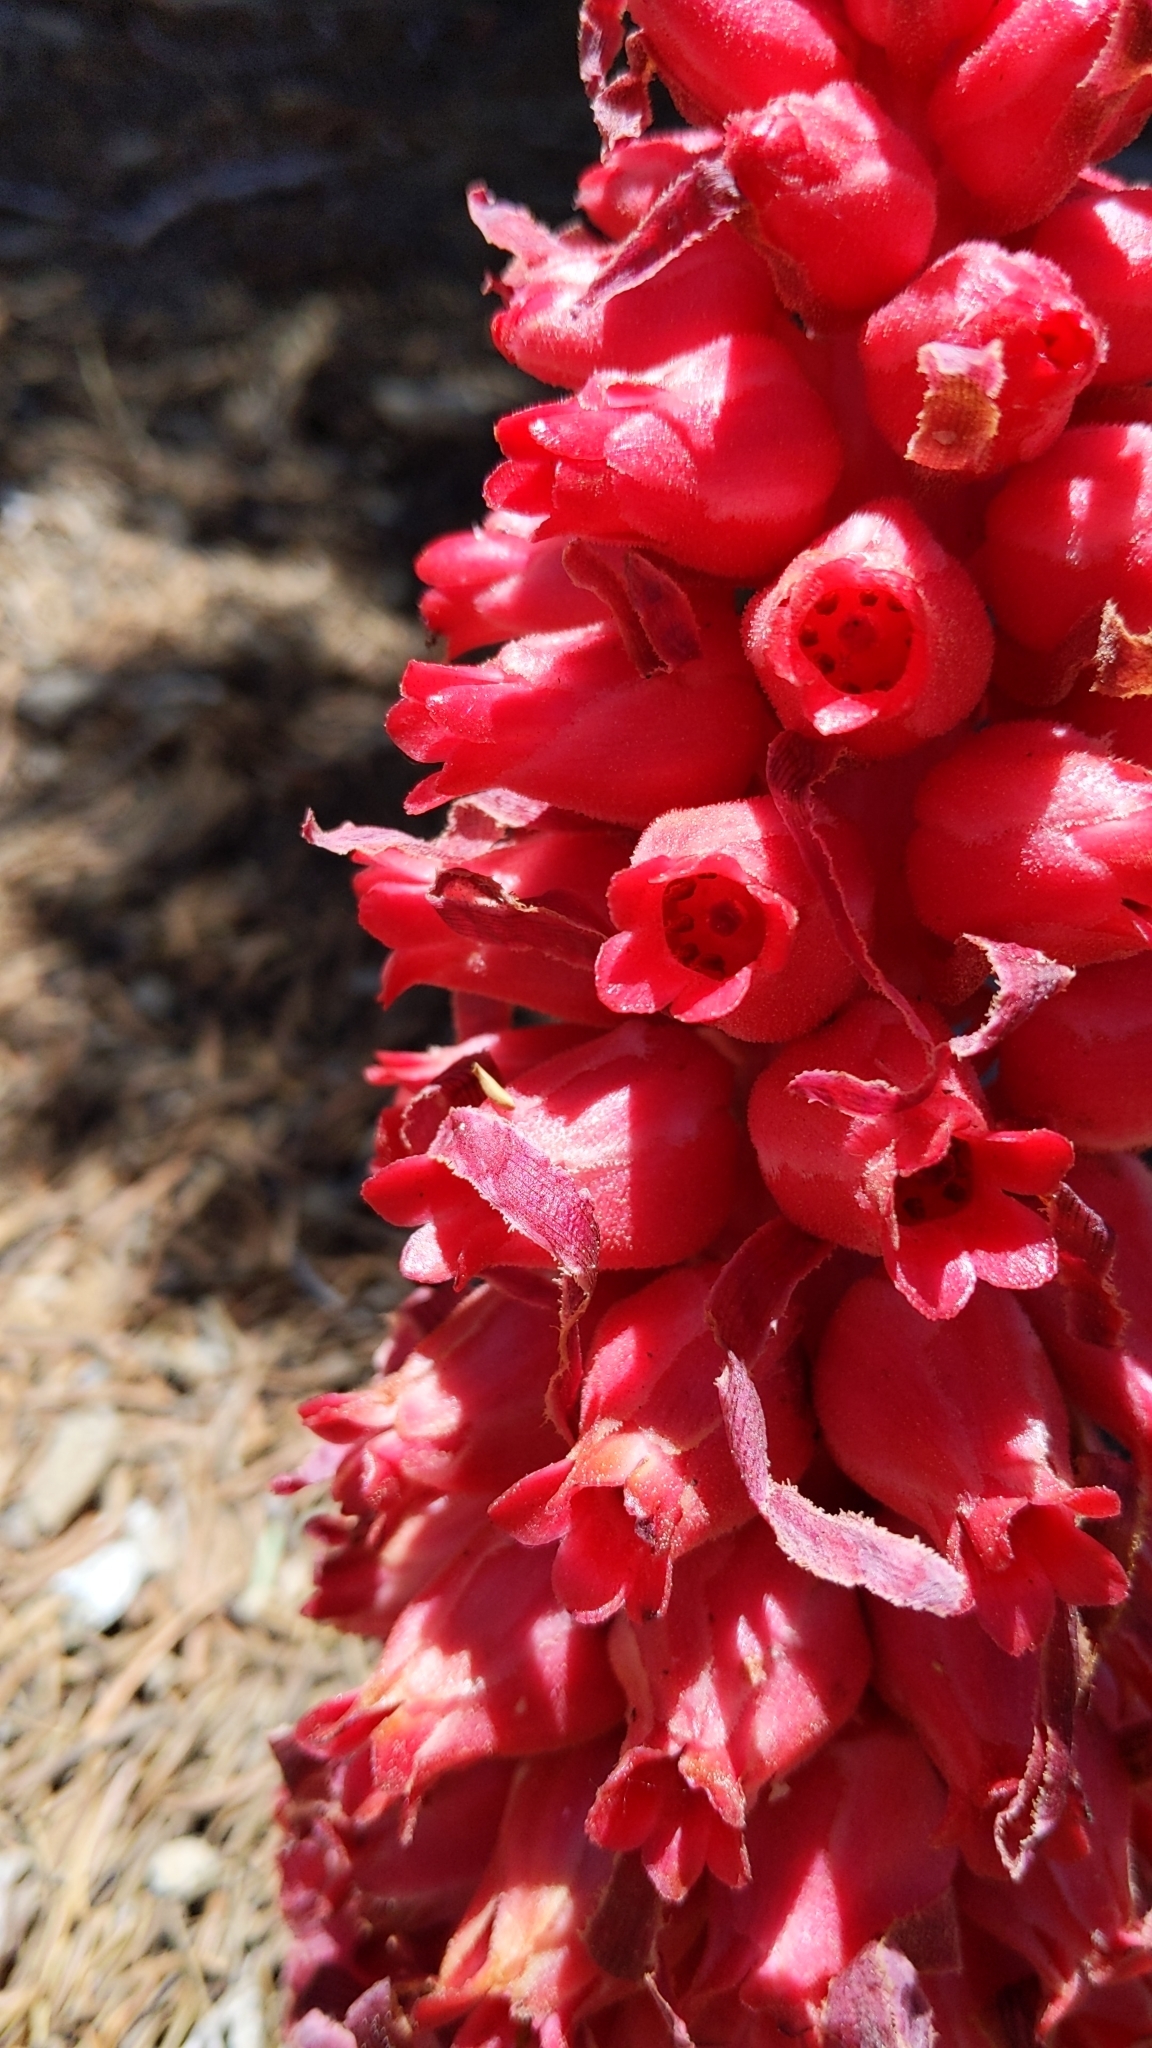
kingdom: Plantae
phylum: Tracheophyta
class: Magnoliopsida
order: Ericales
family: Ericaceae
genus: Sarcodes
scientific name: Sarcodes sanguinea
